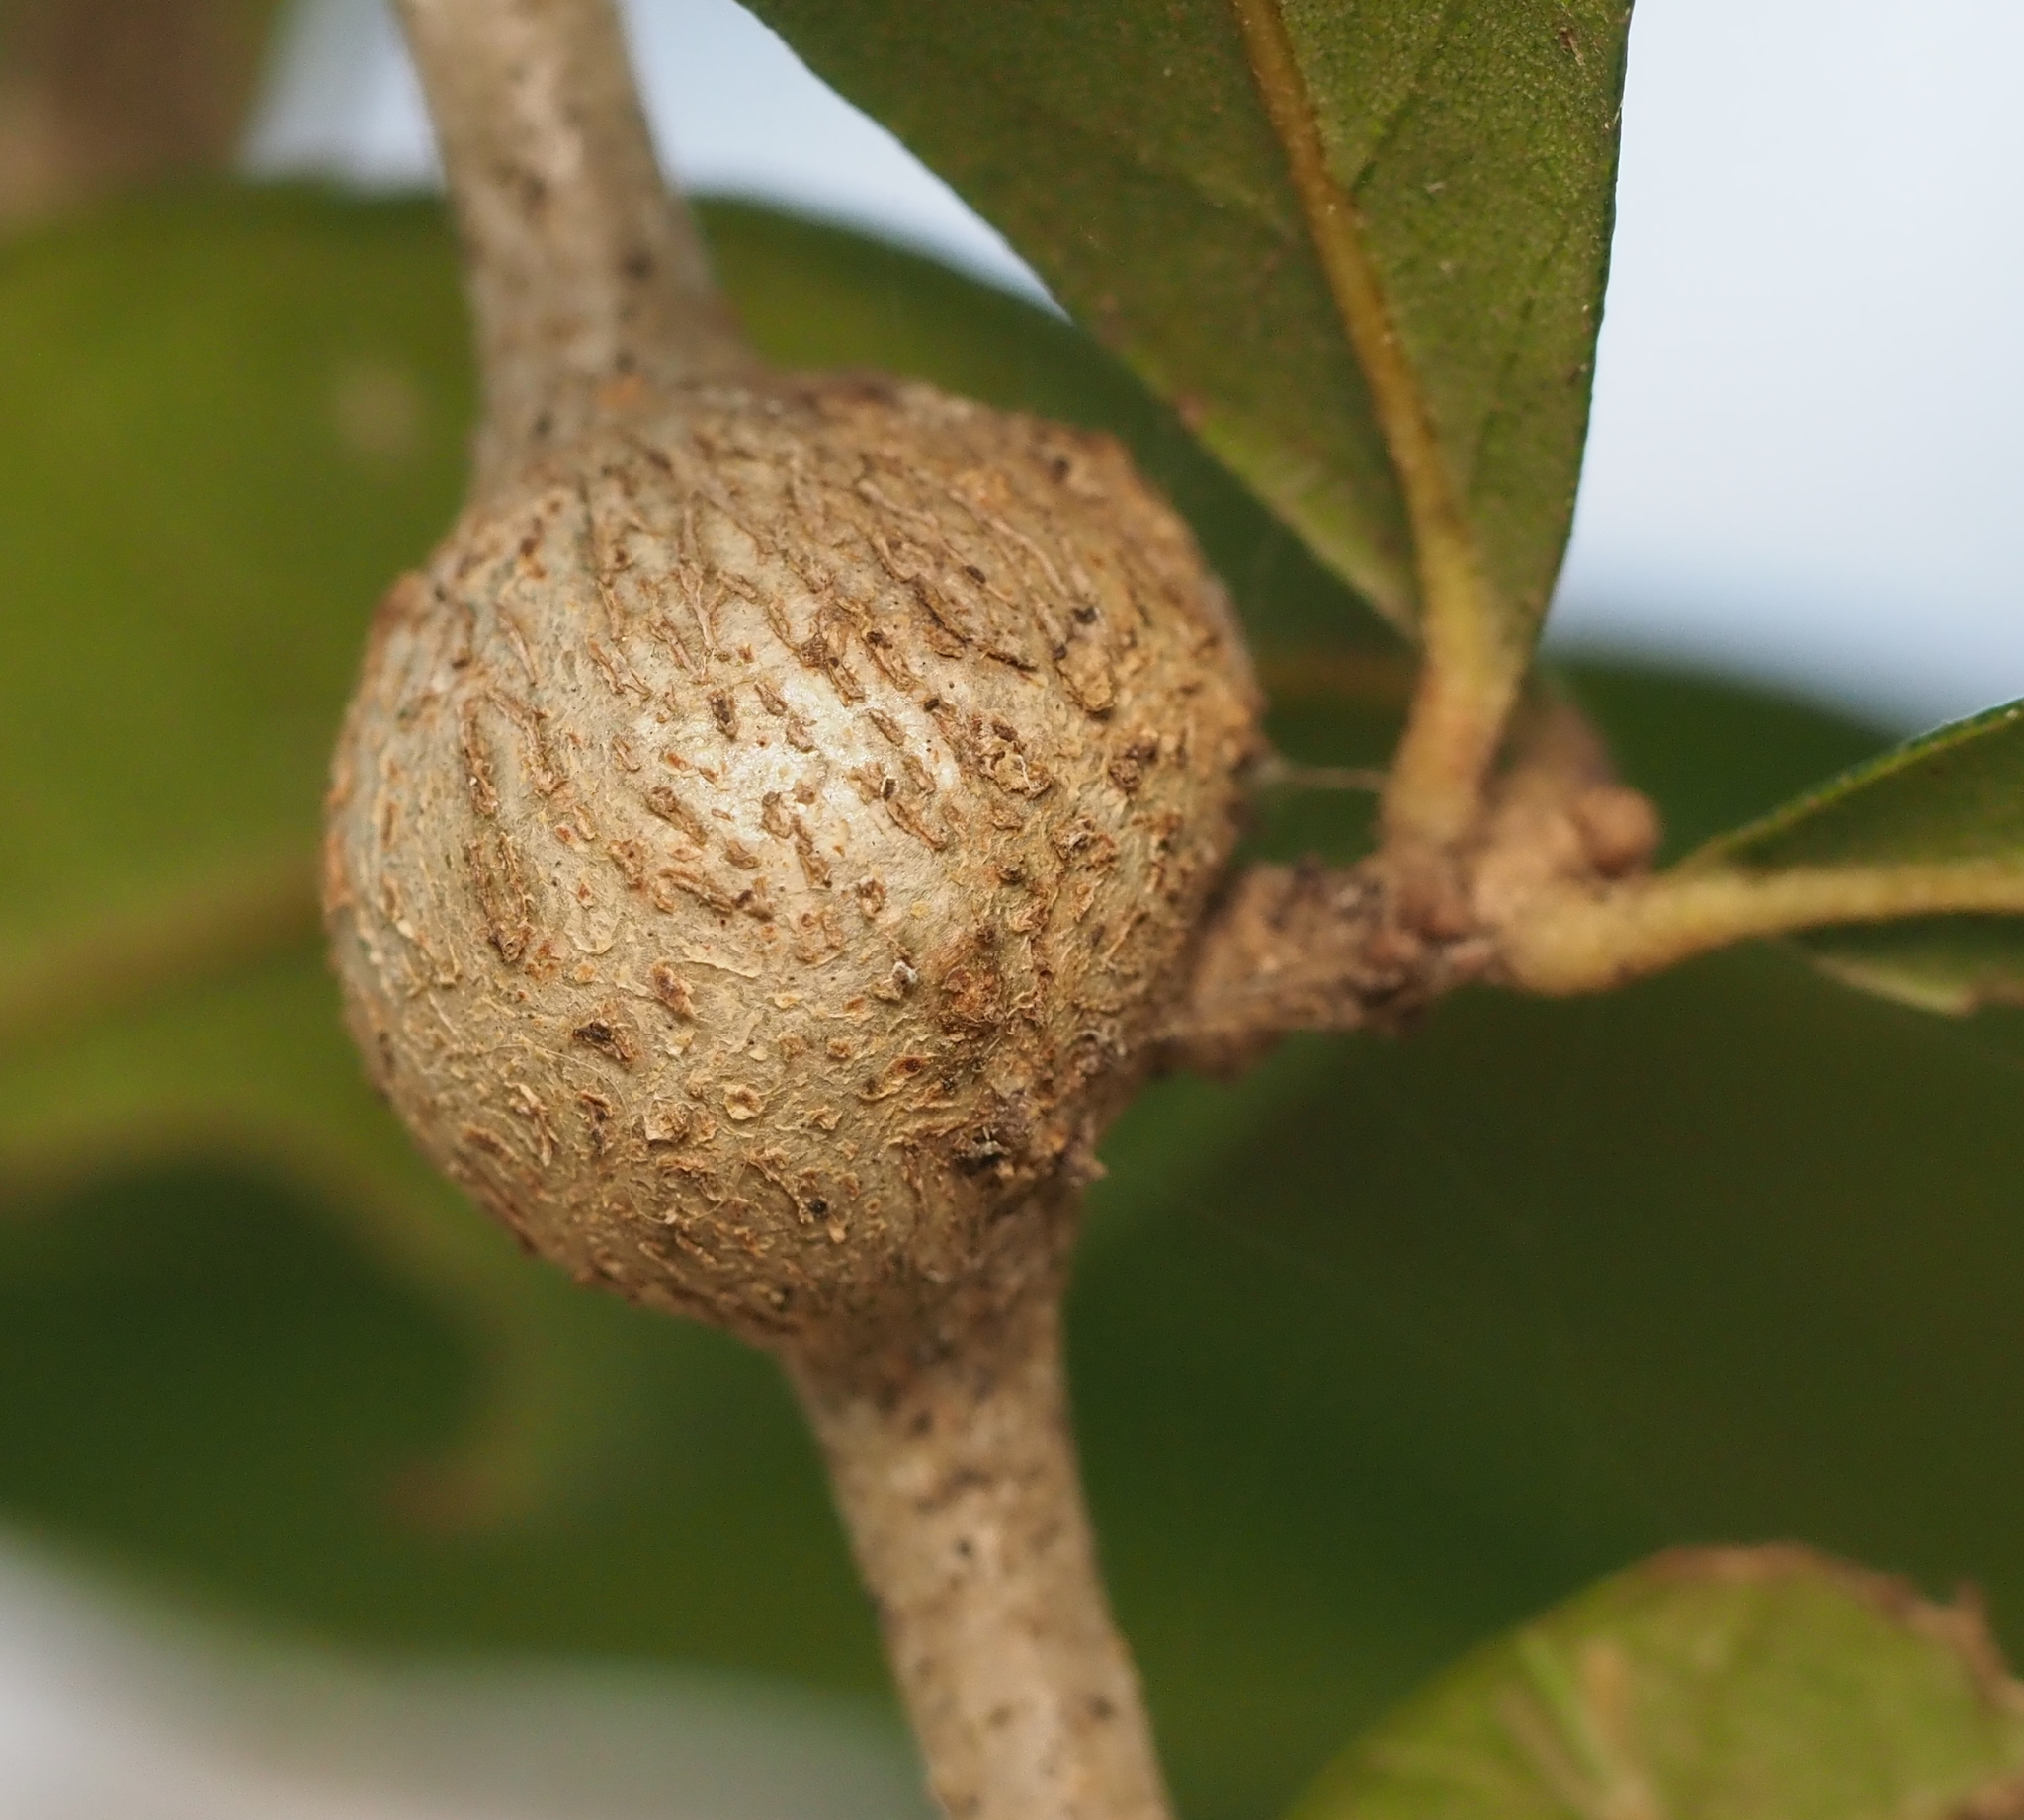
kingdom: Animalia
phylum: Arthropoda
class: Insecta
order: Hymenoptera
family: Cynipidae
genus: Callirhytis
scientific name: Callirhytis
